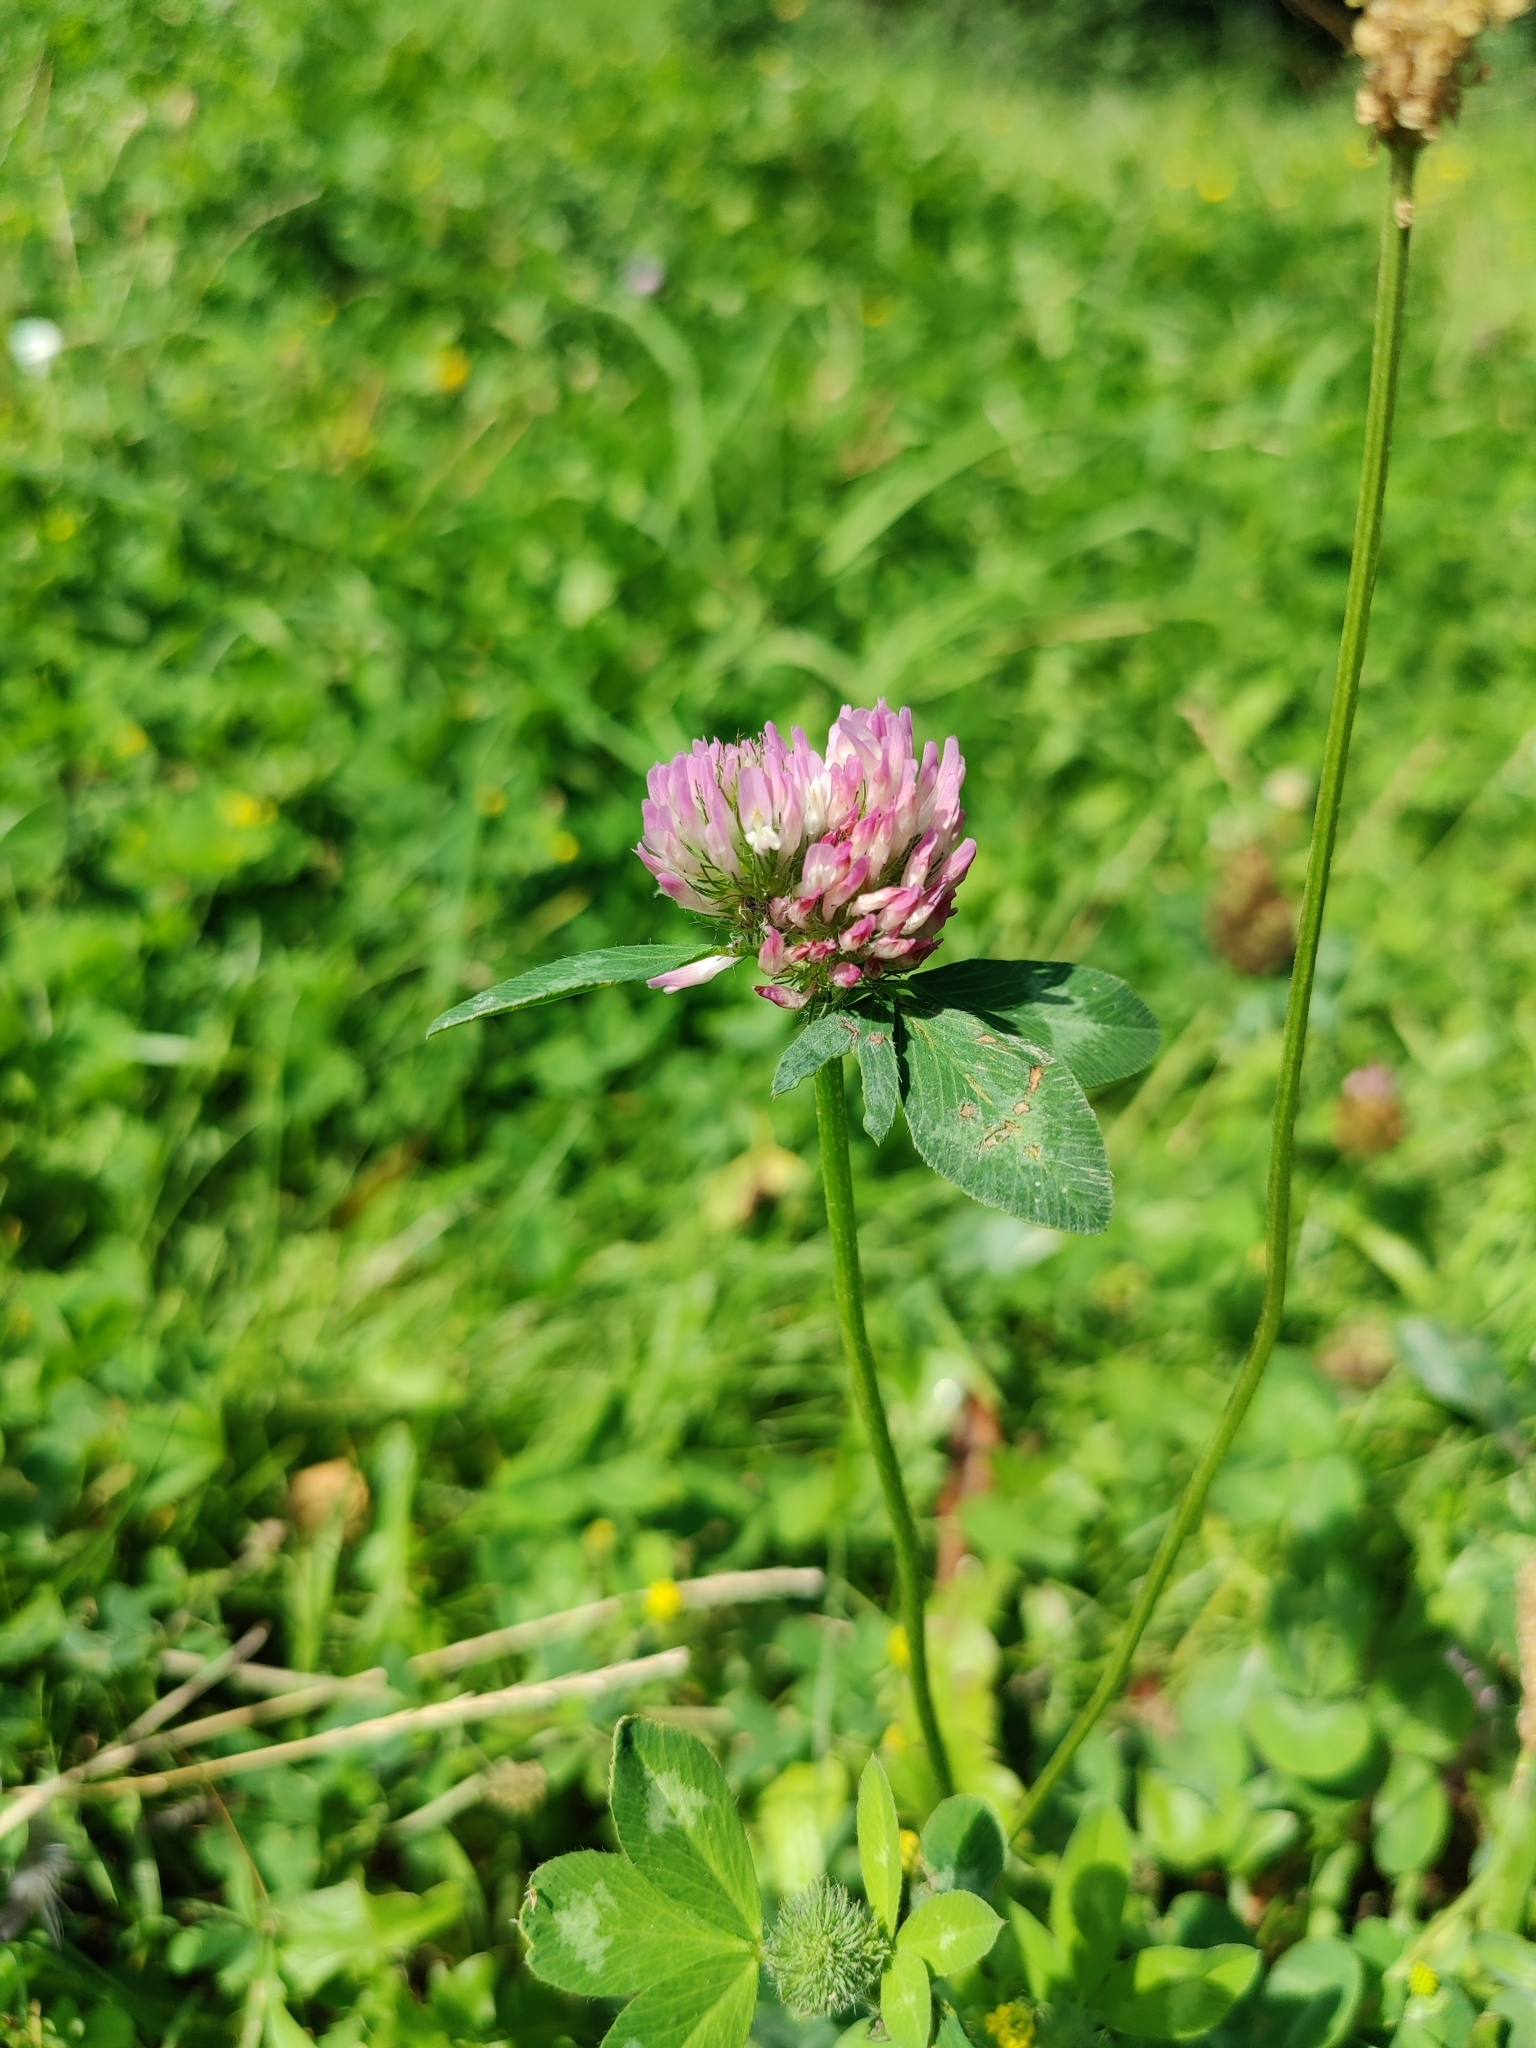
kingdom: Plantae
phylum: Tracheophyta
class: Magnoliopsida
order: Fabales
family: Fabaceae
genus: Trifolium
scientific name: Trifolium pratense
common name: Red clover
